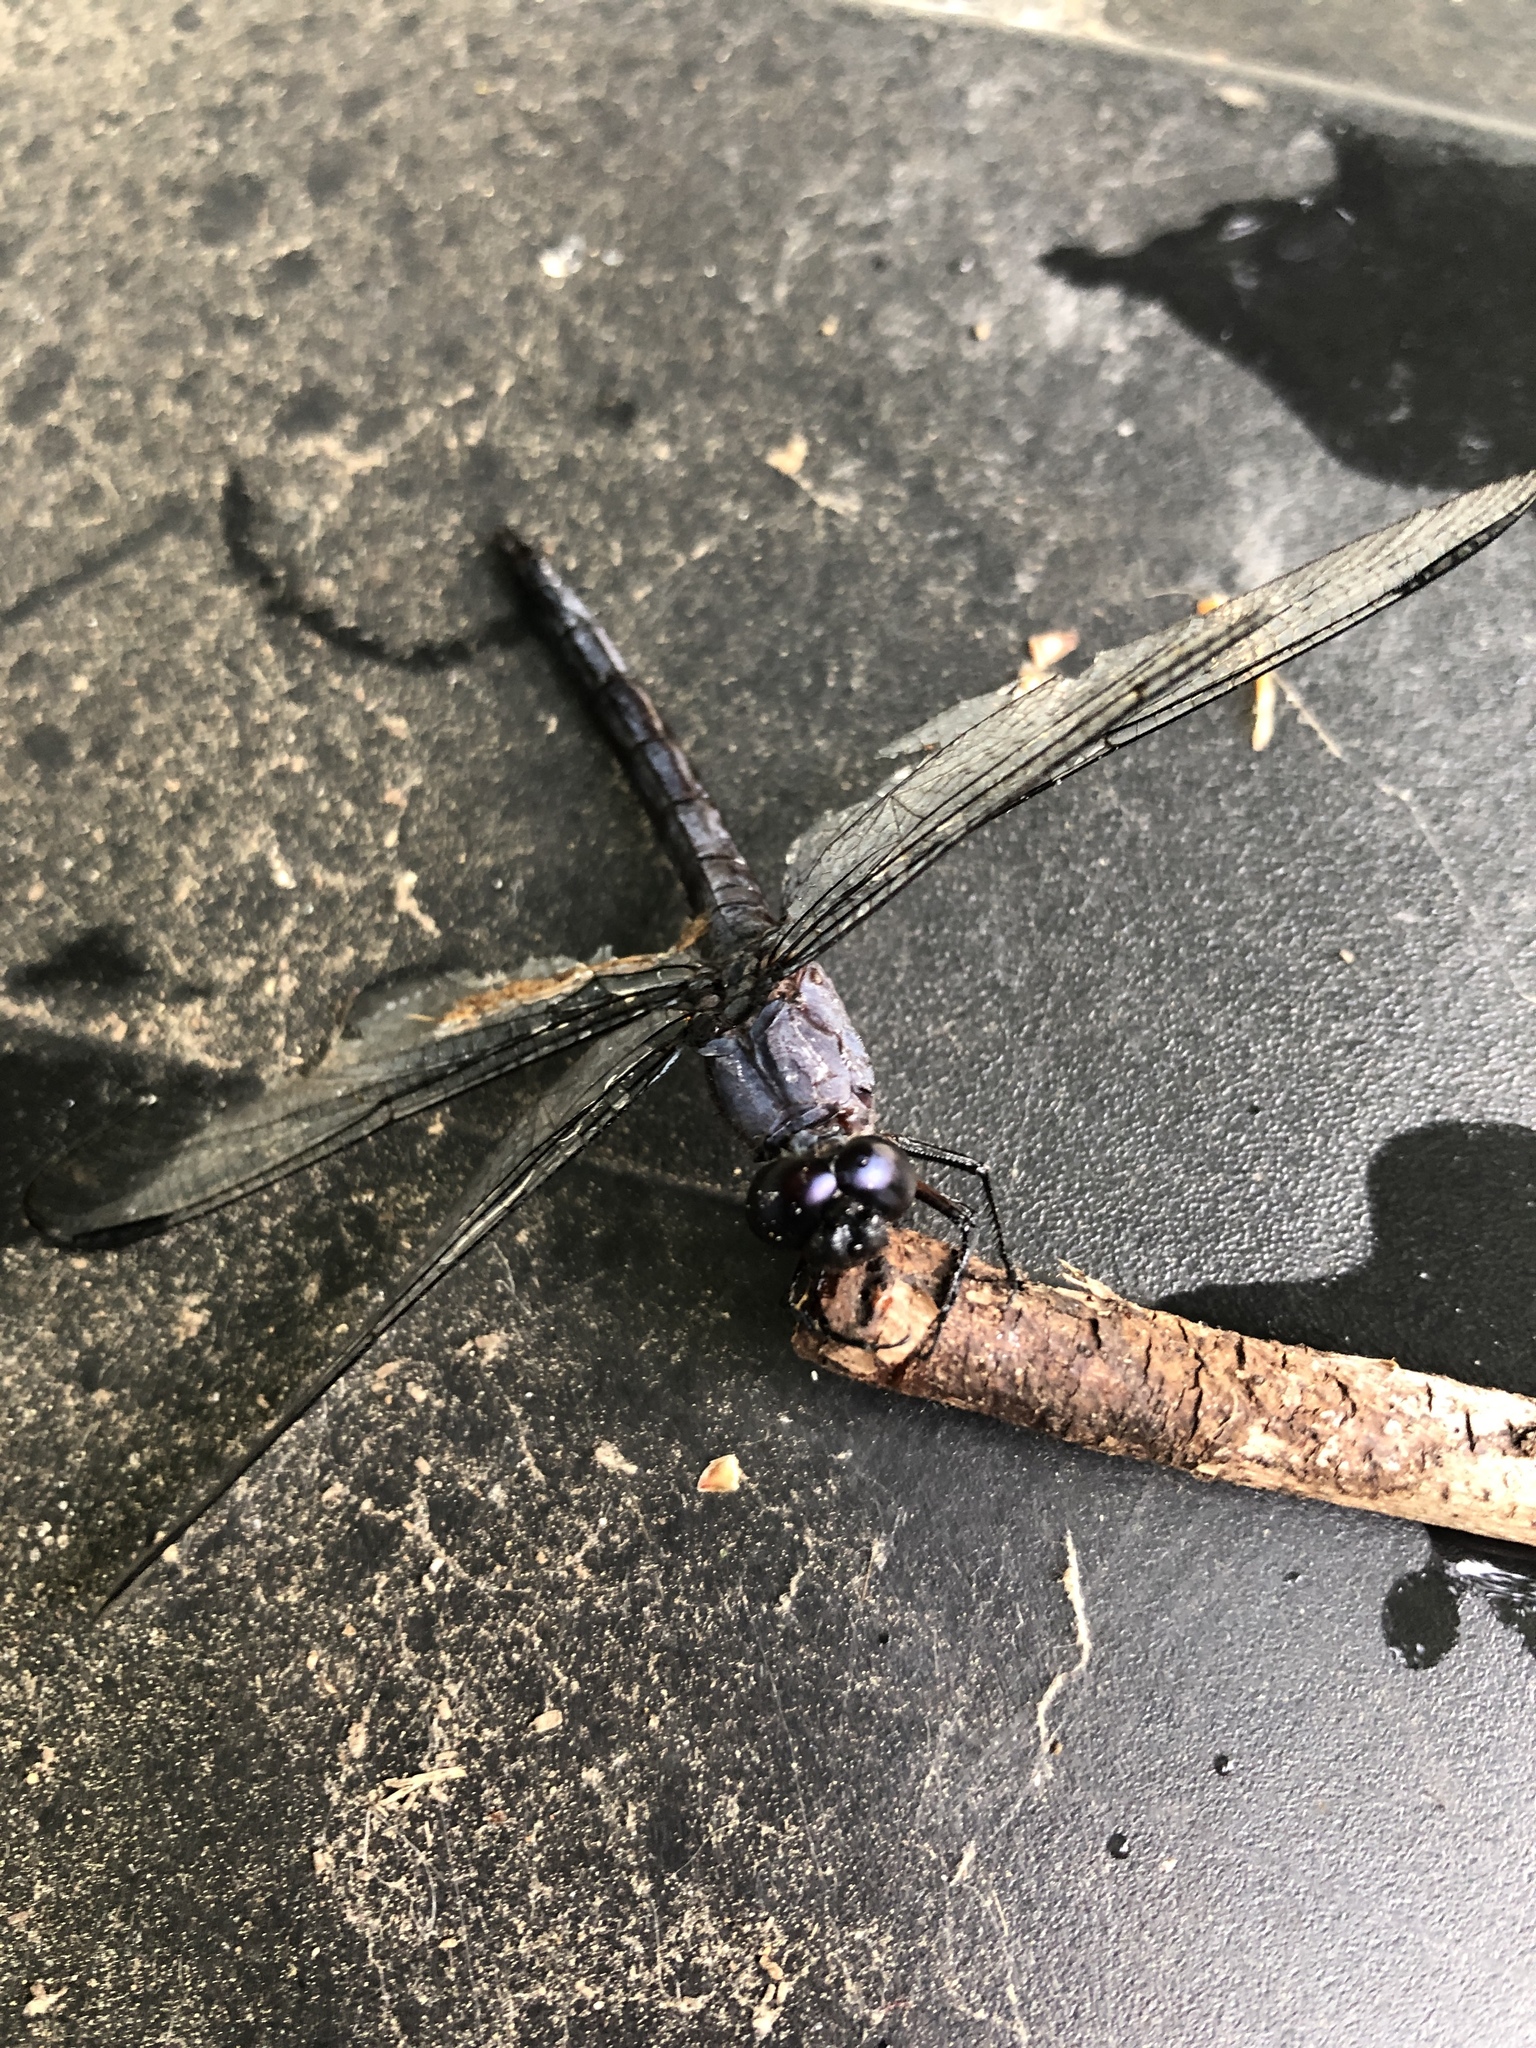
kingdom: Animalia
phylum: Arthropoda
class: Insecta
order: Odonata
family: Libellulidae
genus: Libellula
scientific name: Libellula incesta
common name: Slaty skimmer
